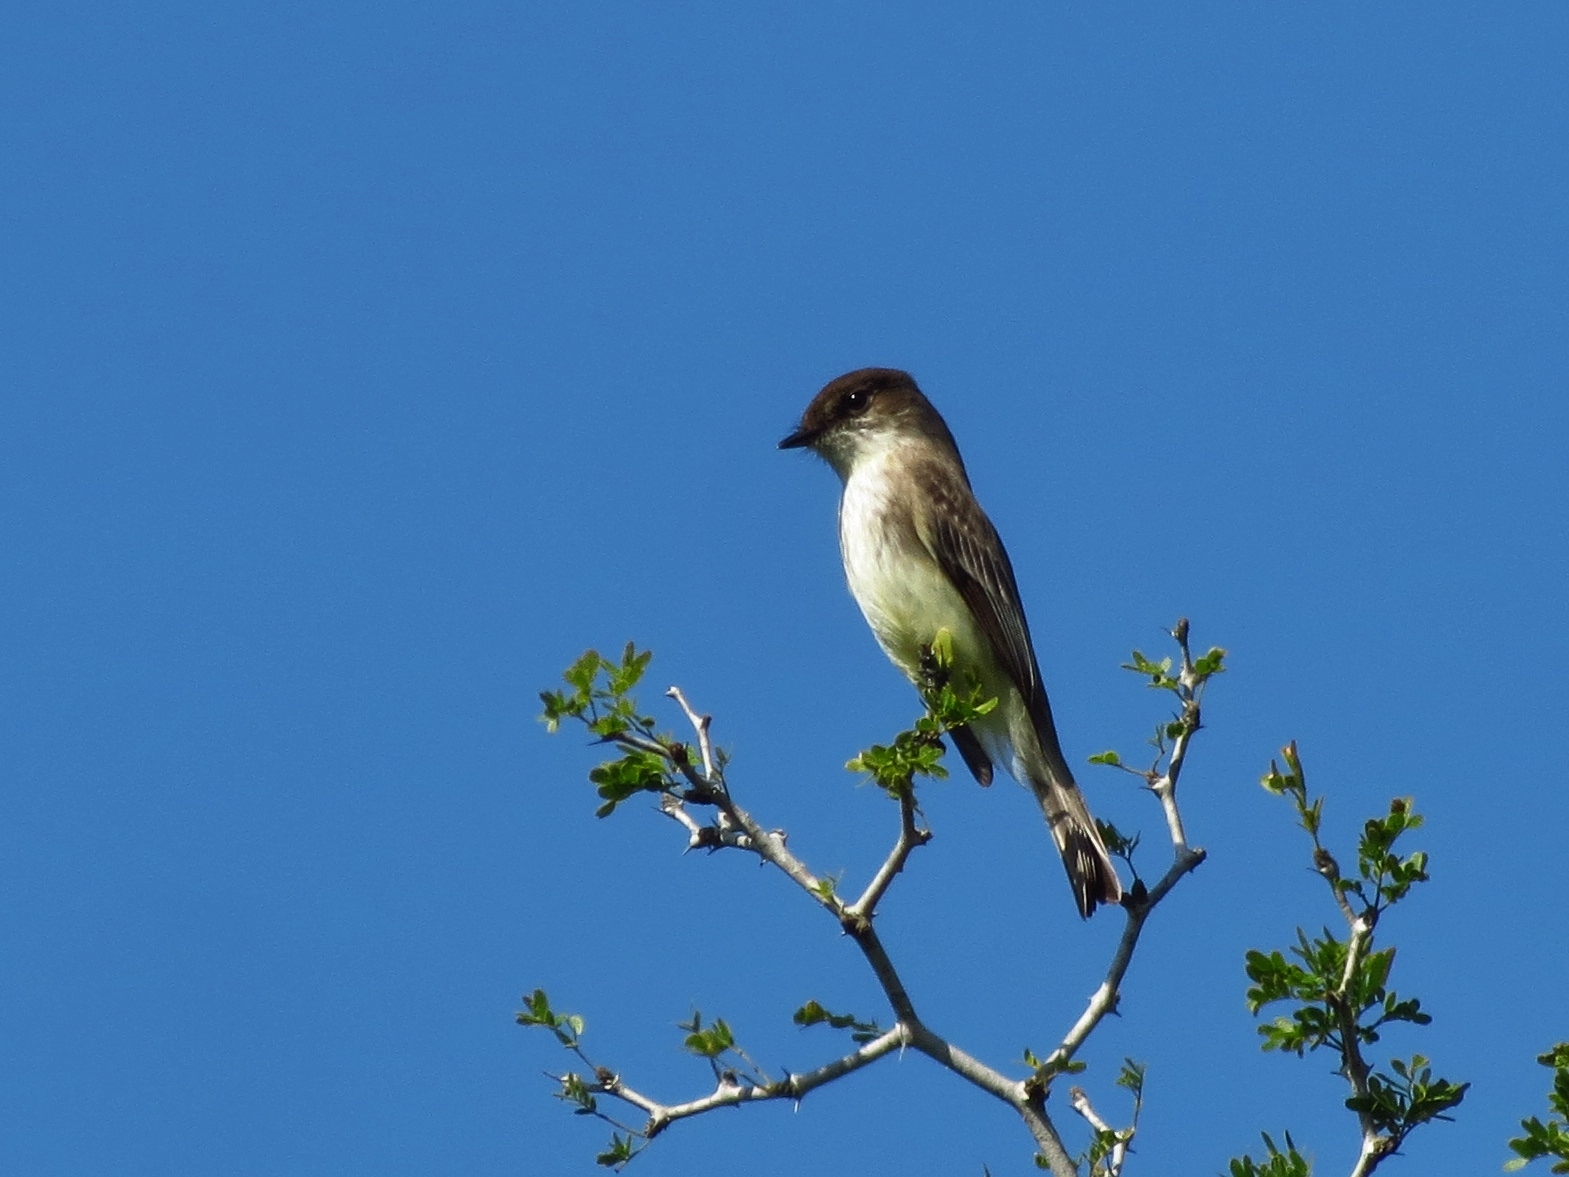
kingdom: Animalia
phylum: Chordata
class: Aves
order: Passeriformes
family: Tyrannidae
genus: Sayornis
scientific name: Sayornis phoebe
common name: Eastern phoebe
